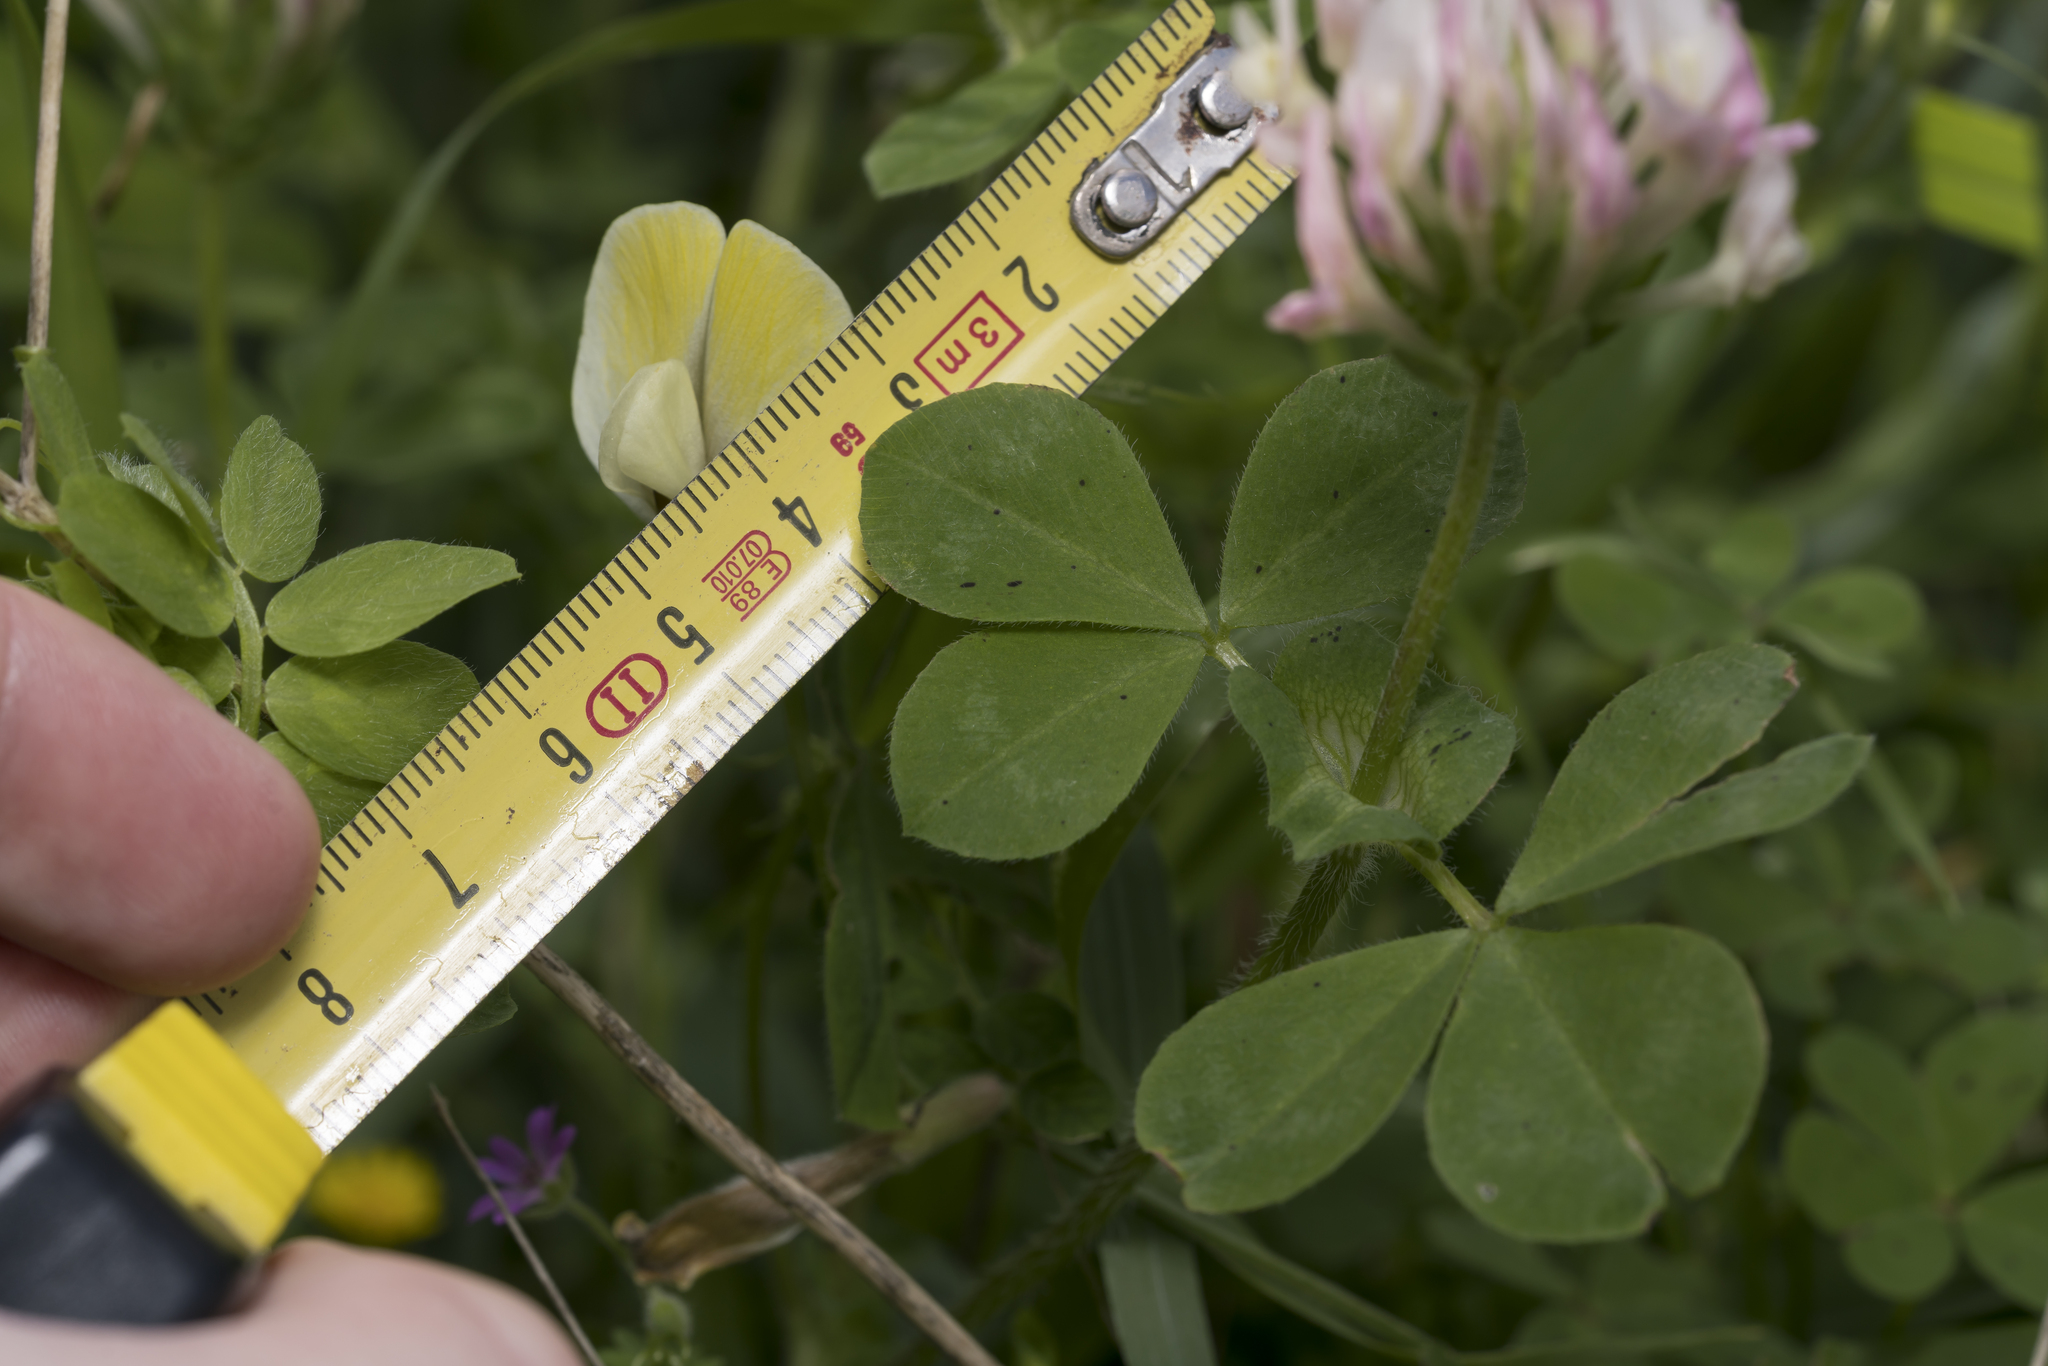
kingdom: Plantae
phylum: Tracheophyta
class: Magnoliopsida
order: Fabales
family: Fabaceae
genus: Trifolium
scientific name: Trifolium clypeatum
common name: Shield clover
